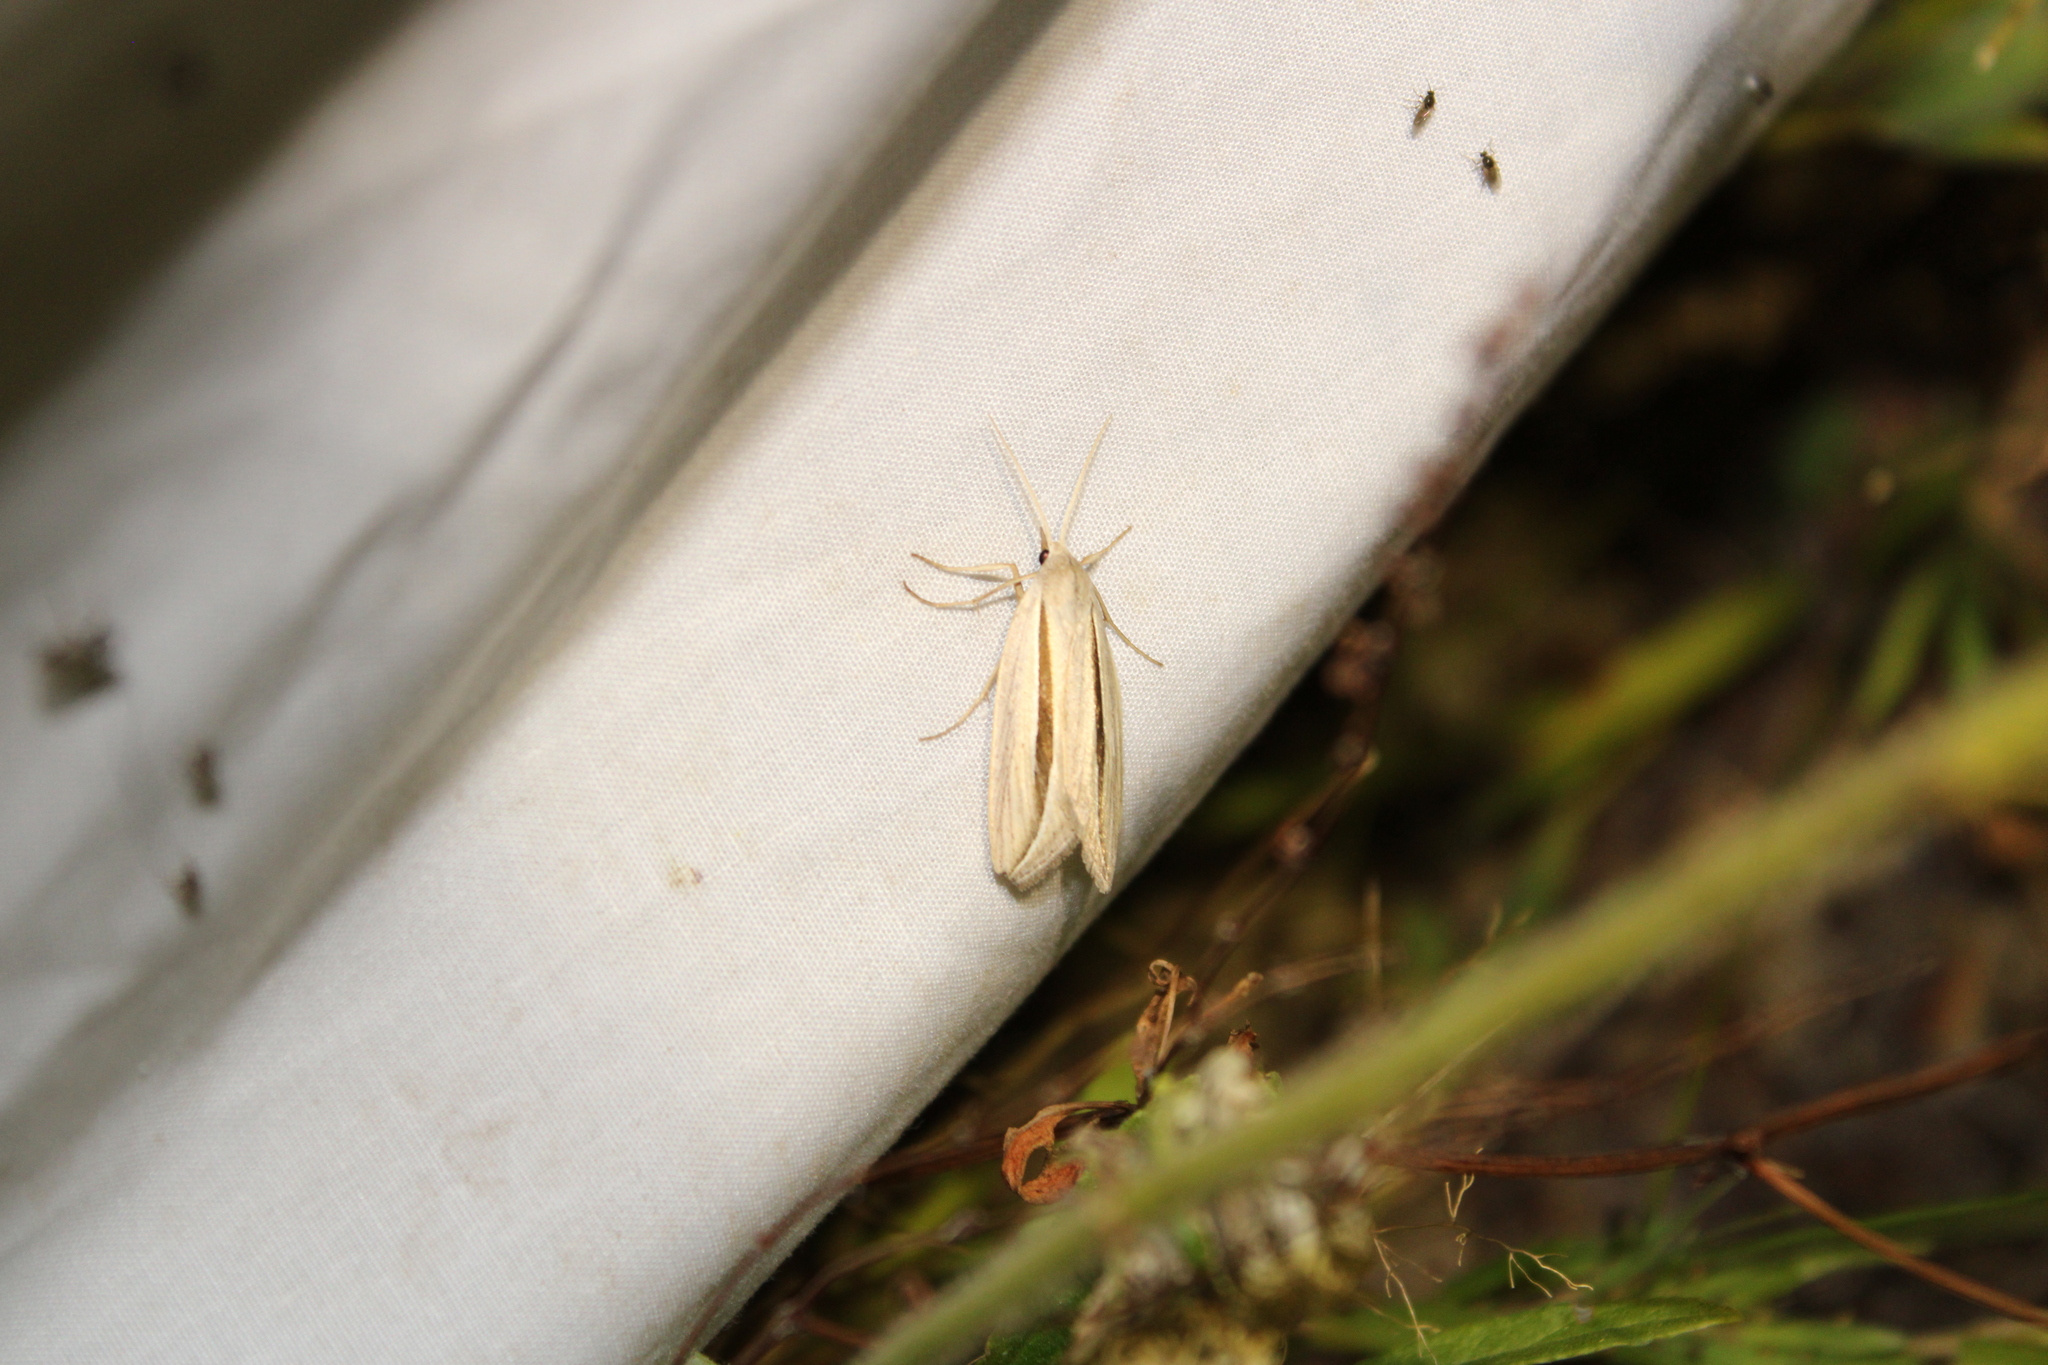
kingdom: Animalia
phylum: Arthropoda
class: Insecta
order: Lepidoptera
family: Erebidae
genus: Doryodes
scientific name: Doryodes spadaria
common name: Dull doryodes moth
